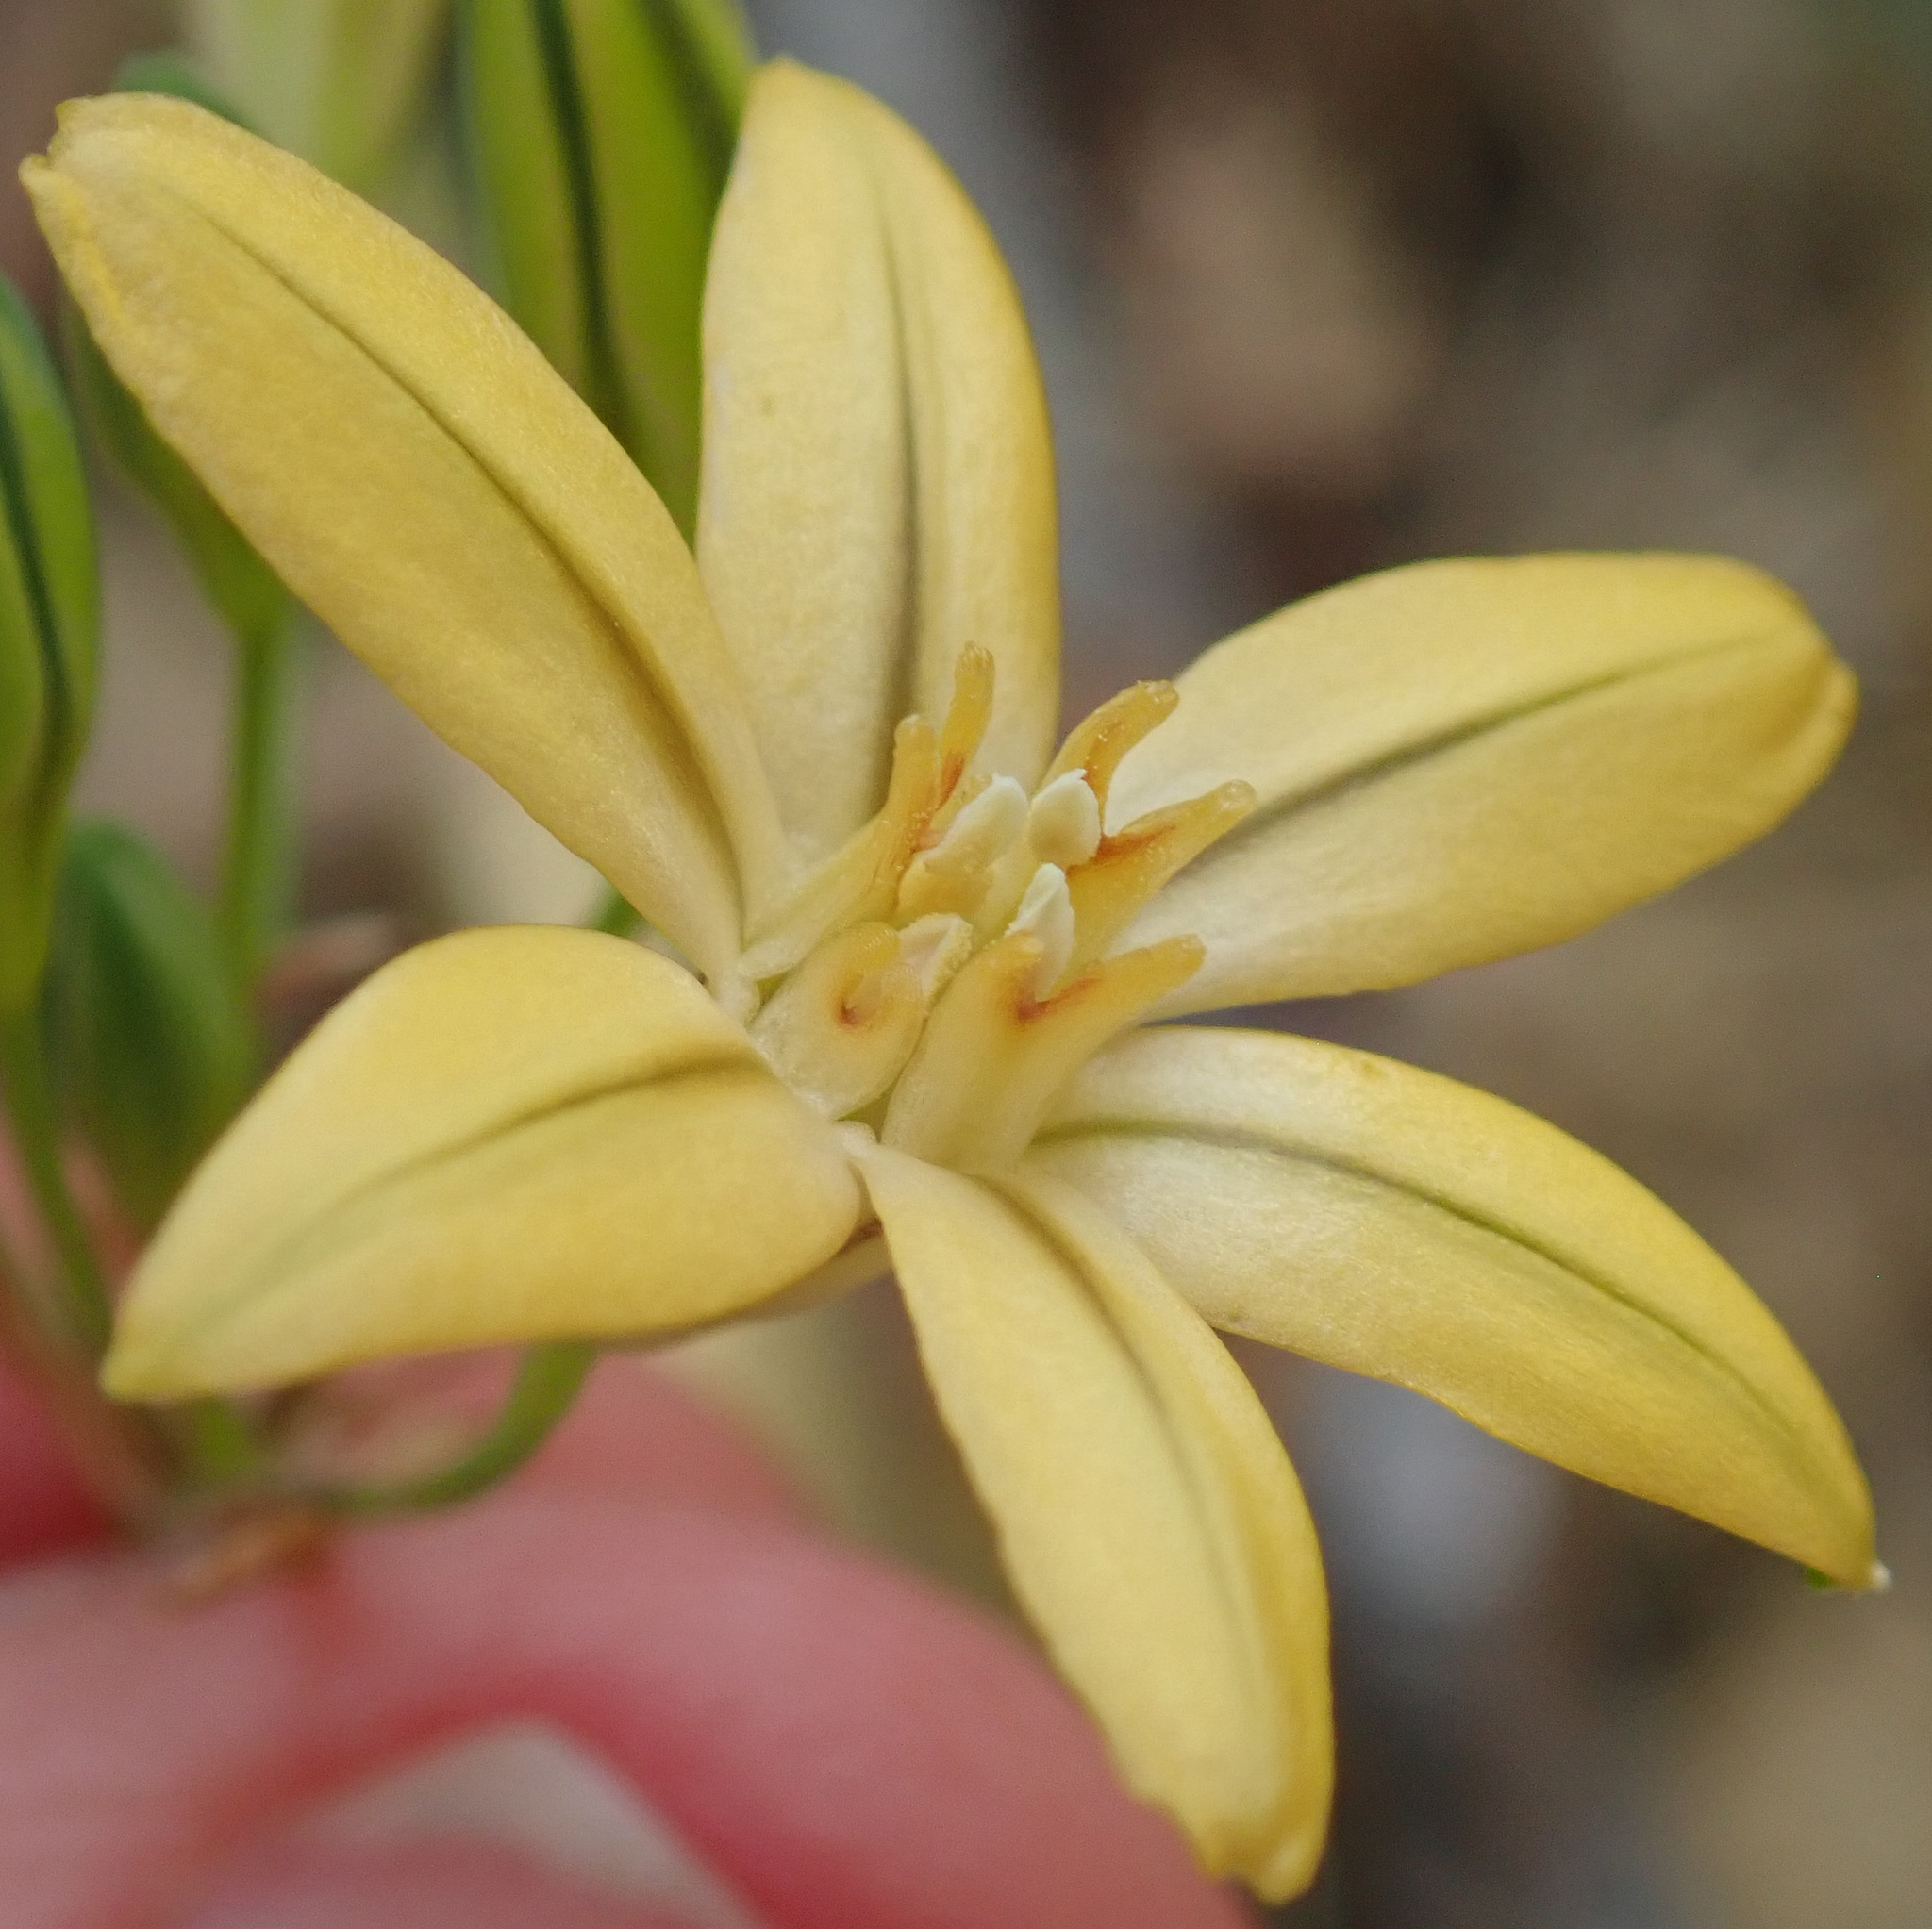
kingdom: Plantae
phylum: Tracheophyta
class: Liliopsida
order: Asparagales
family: Asparagaceae
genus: Triteleia
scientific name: Triteleia ixioides
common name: Yellow-brodiaea
